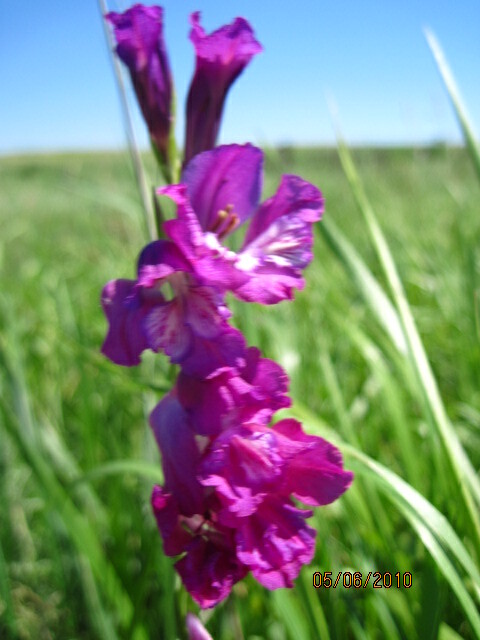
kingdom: Plantae
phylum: Tracheophyta
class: Liliopsida
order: Asparagales
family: Iridaceae
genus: Gladiolus
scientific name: Gladiolus tenuis
